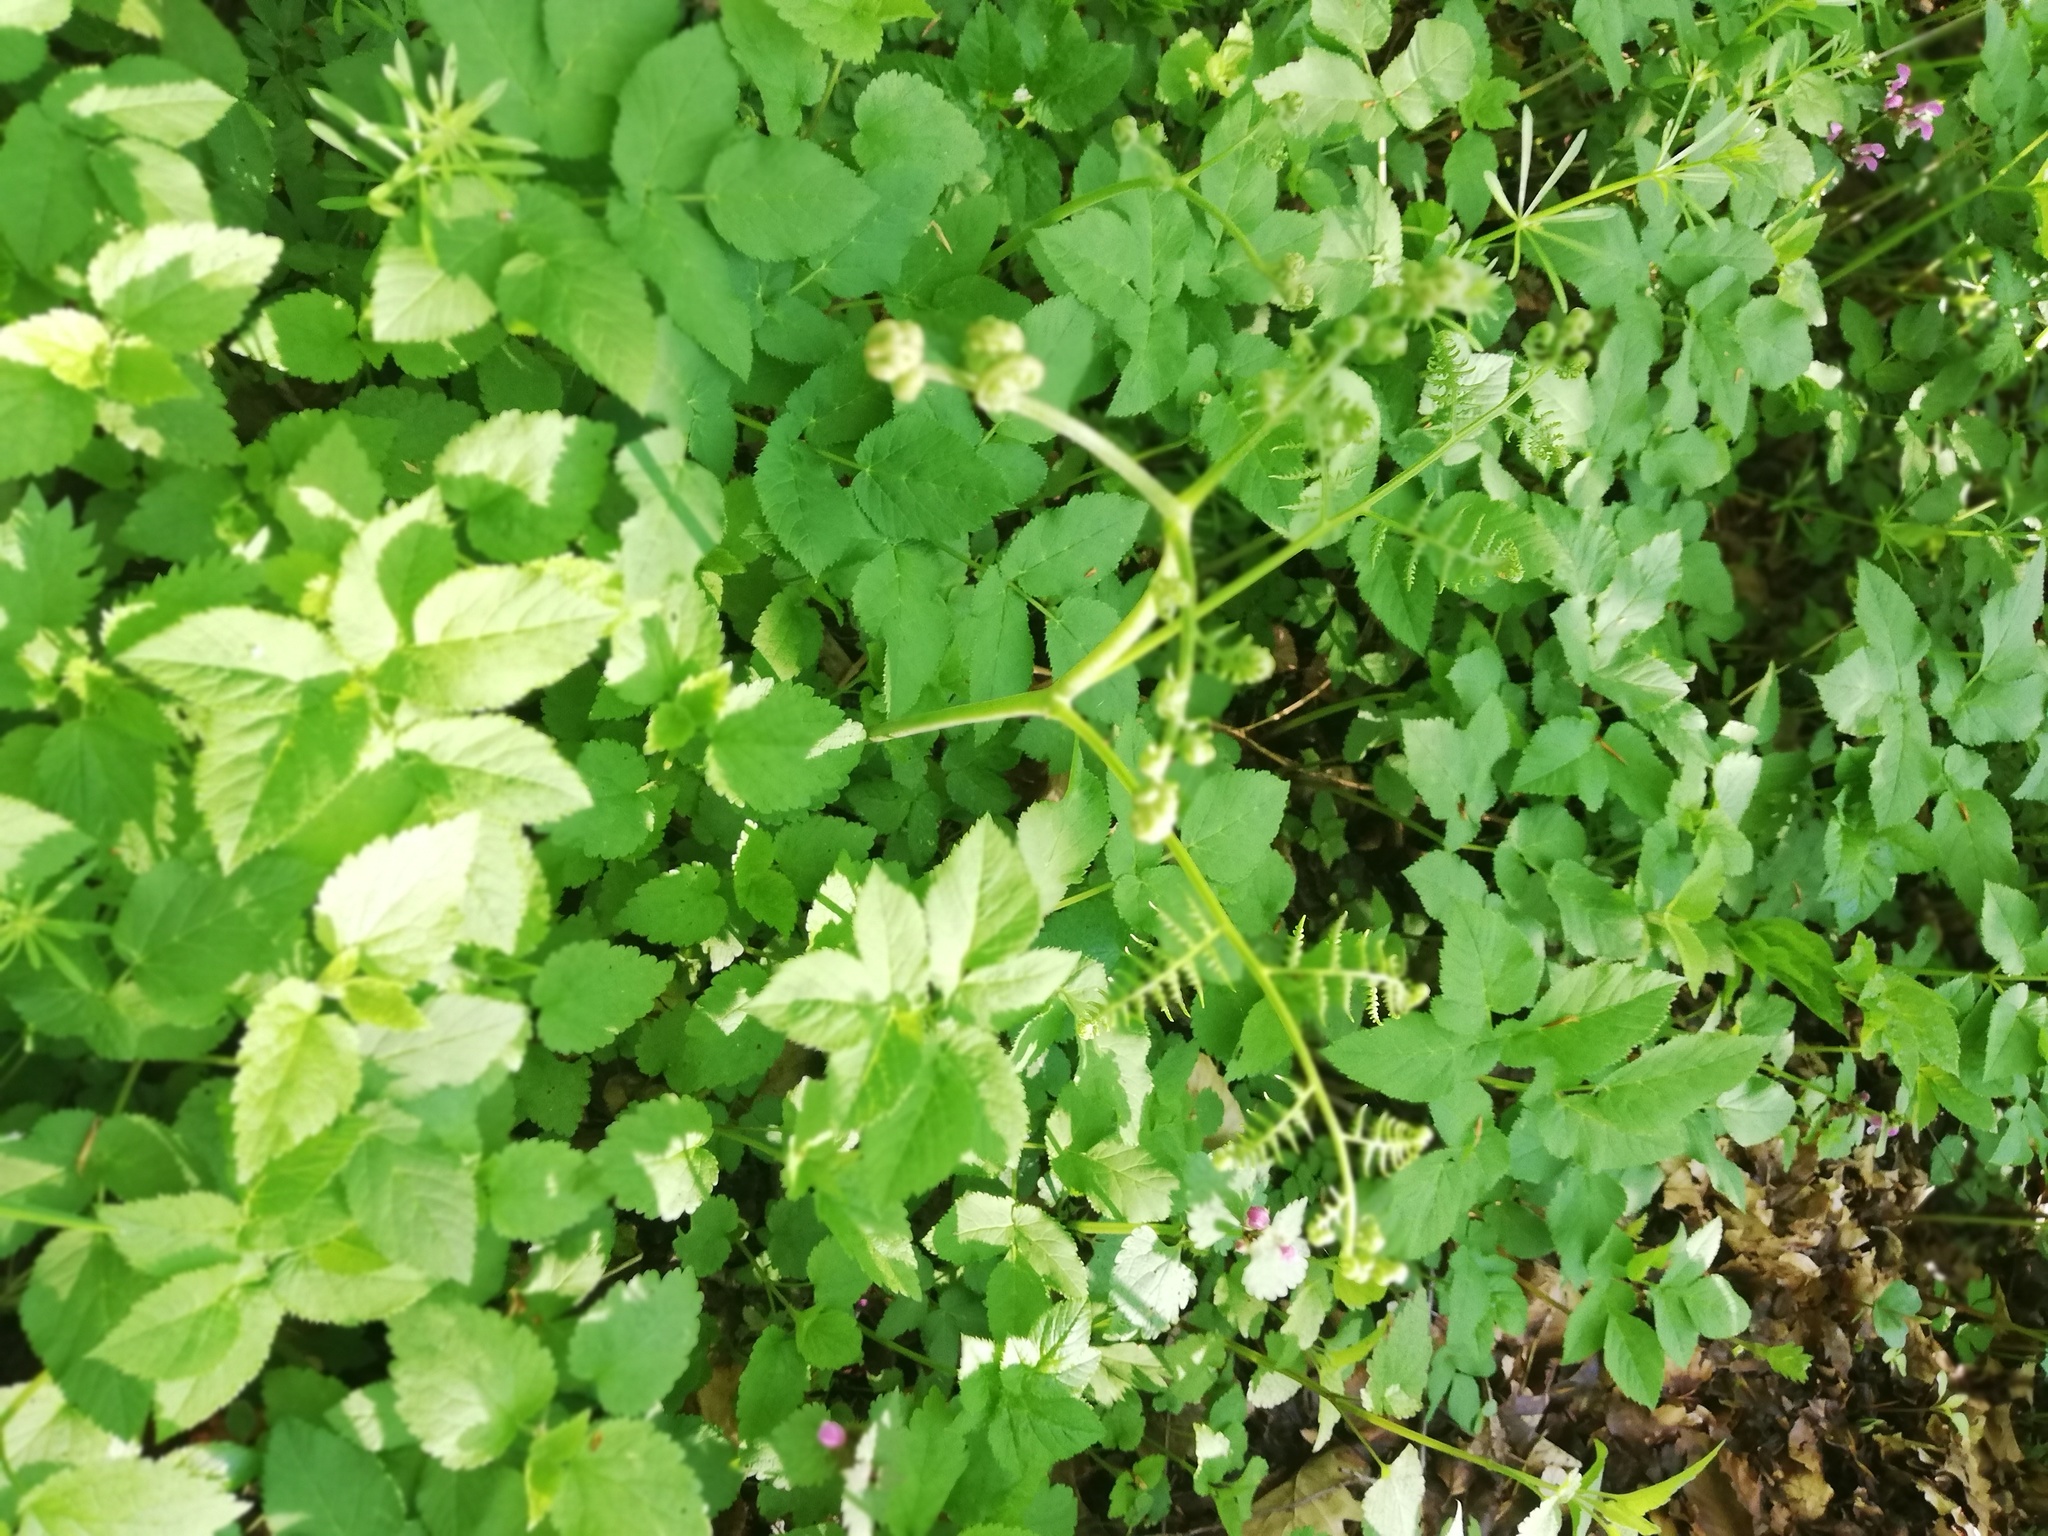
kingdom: Plantae
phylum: Tracheophyta
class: Polypodiopsida
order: Polypodiales
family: Dennstaedtiaceae
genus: Pteridium
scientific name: Pteridium aquilinum
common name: Bracken
